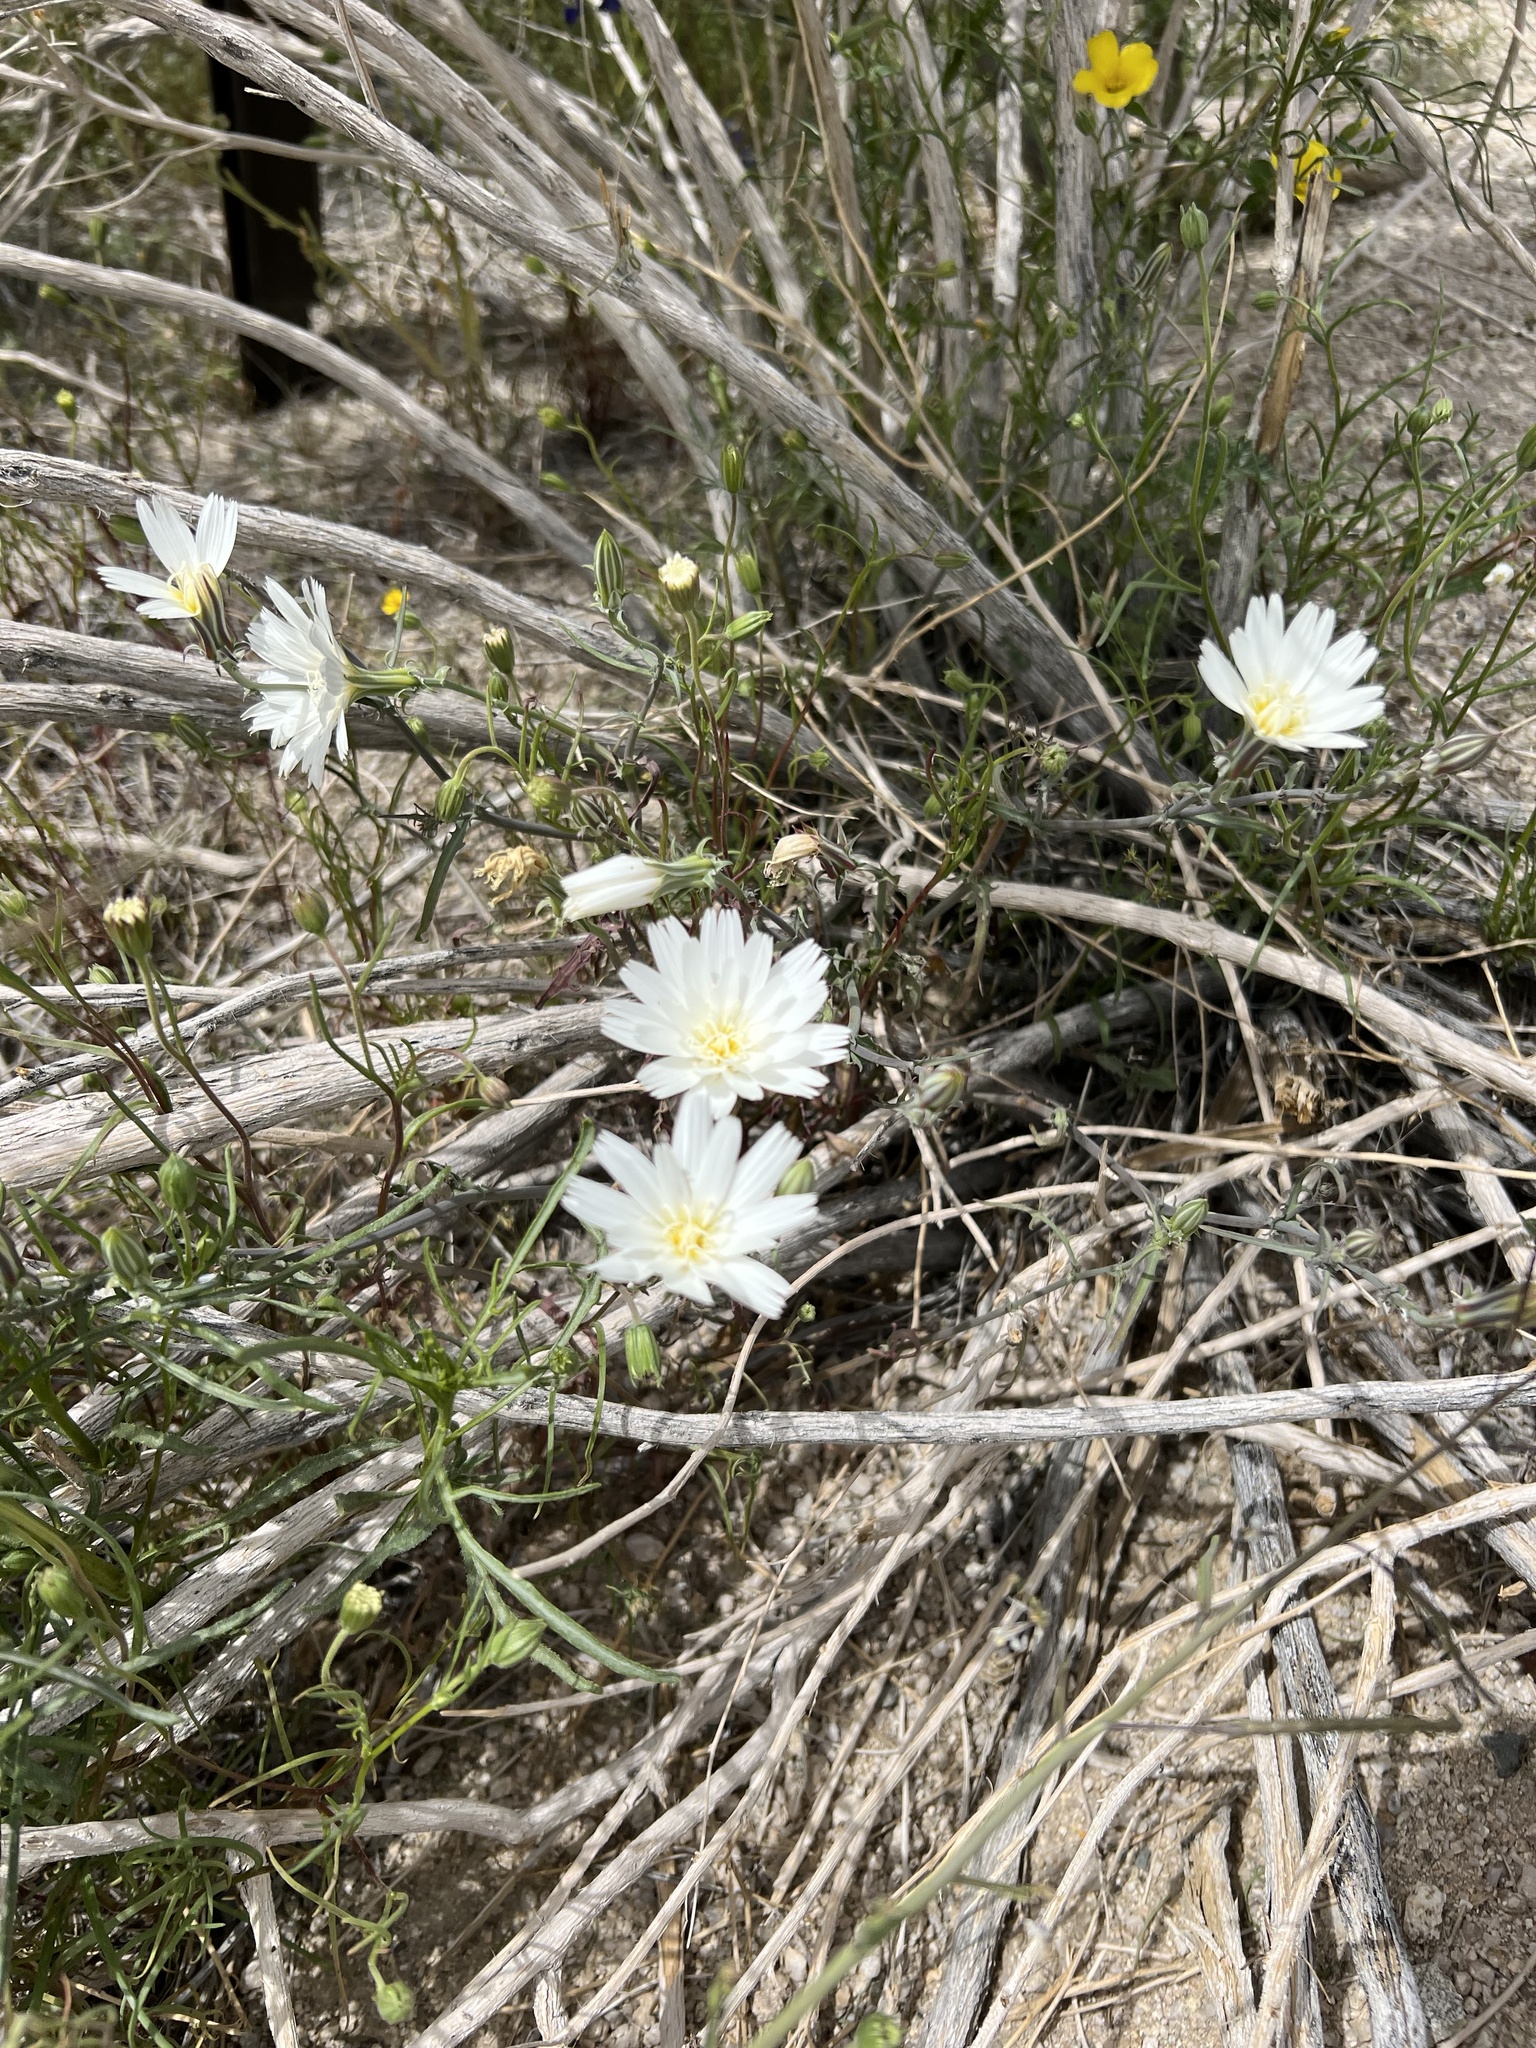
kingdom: Plantae
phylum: Tracheophyta
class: Magnoliopsida
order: Asterales
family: Asteraceae
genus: Rafinesquia
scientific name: Rafinesquia neomexicana
